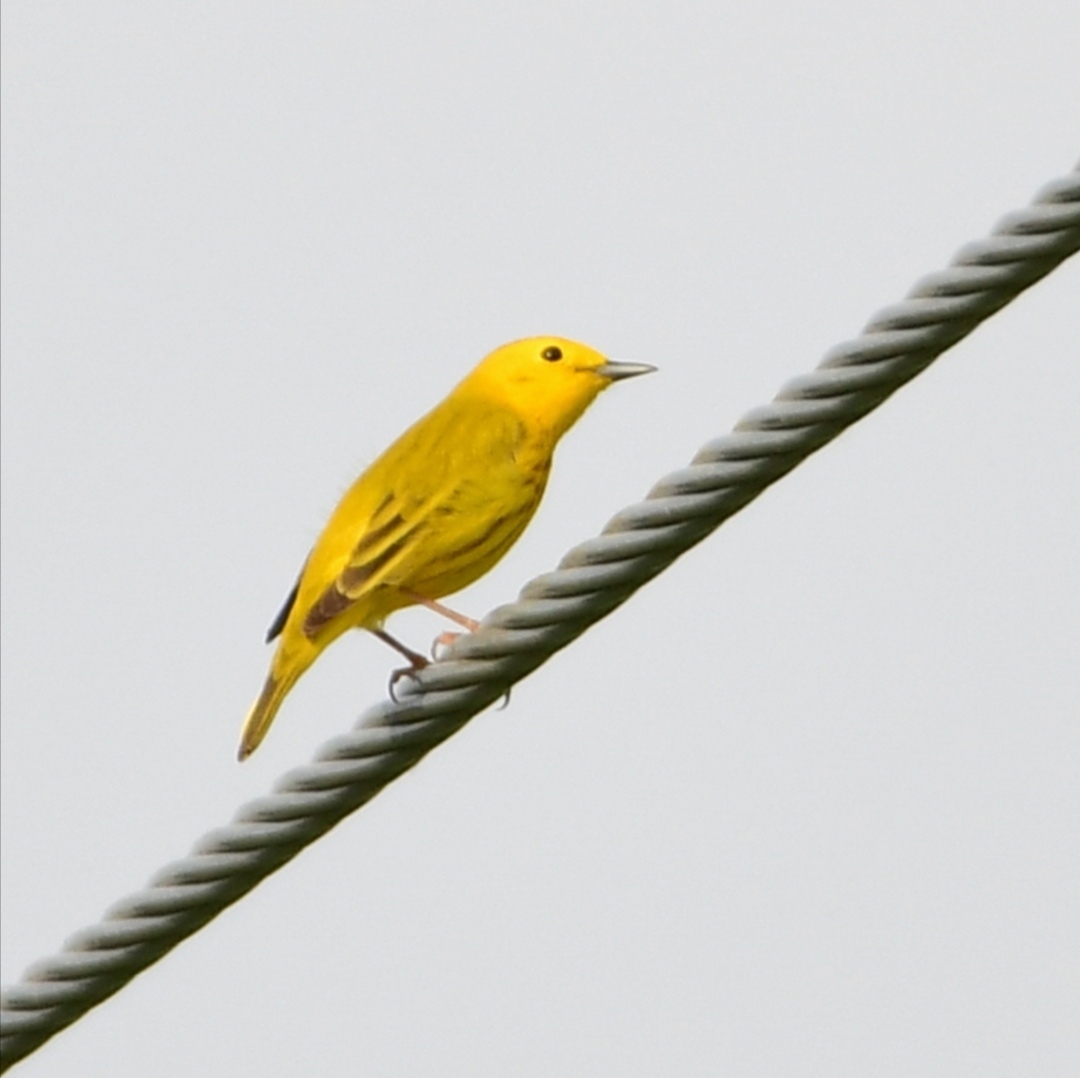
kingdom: Animalia
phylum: Chordata
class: Aves
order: Passeriformes
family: Parulidae
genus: Setophaga
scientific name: Setophaga petechia
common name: Yellow warbler
